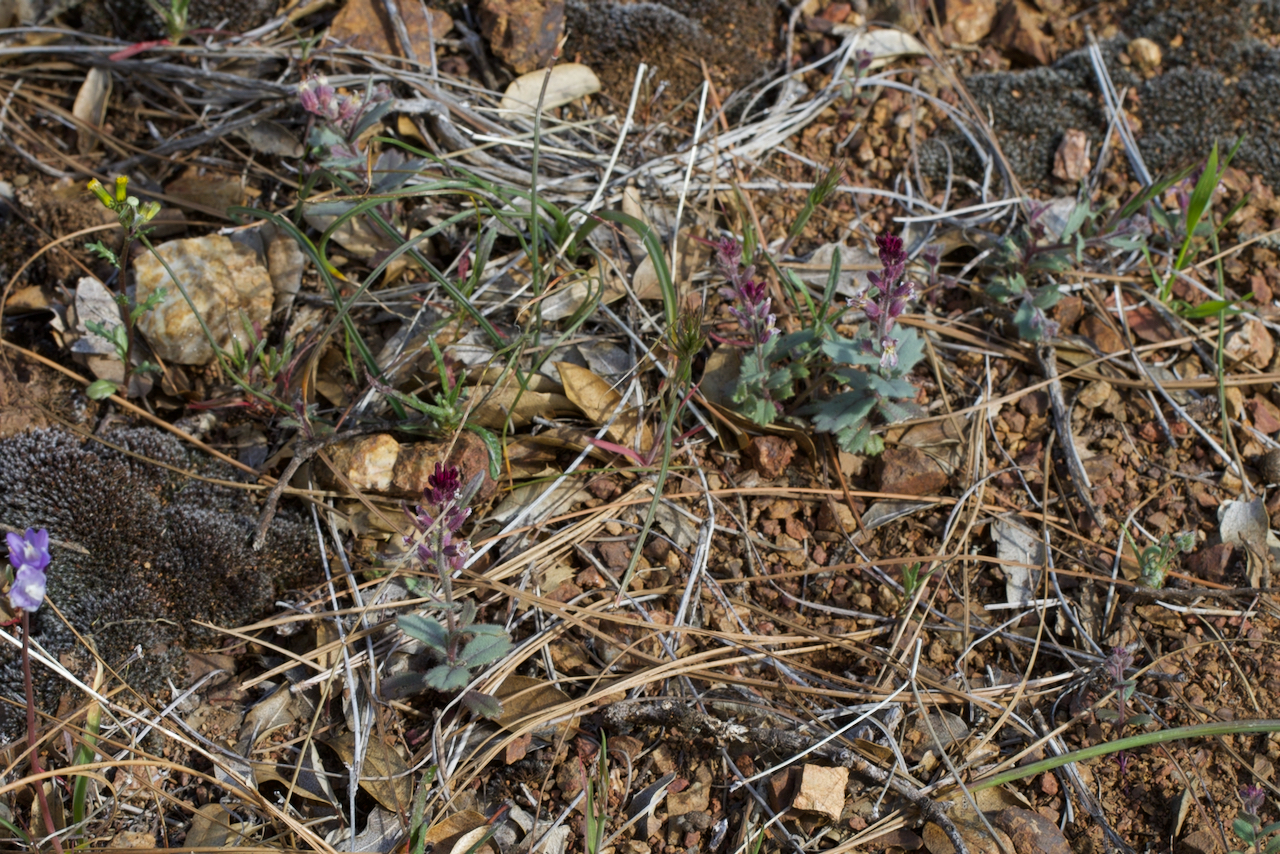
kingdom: Plantae
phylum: Tracheophyta
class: Magnoliopsida
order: Brassicales
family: Brassicaceae
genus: Streptanthus
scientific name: Streptanthus hispidus
